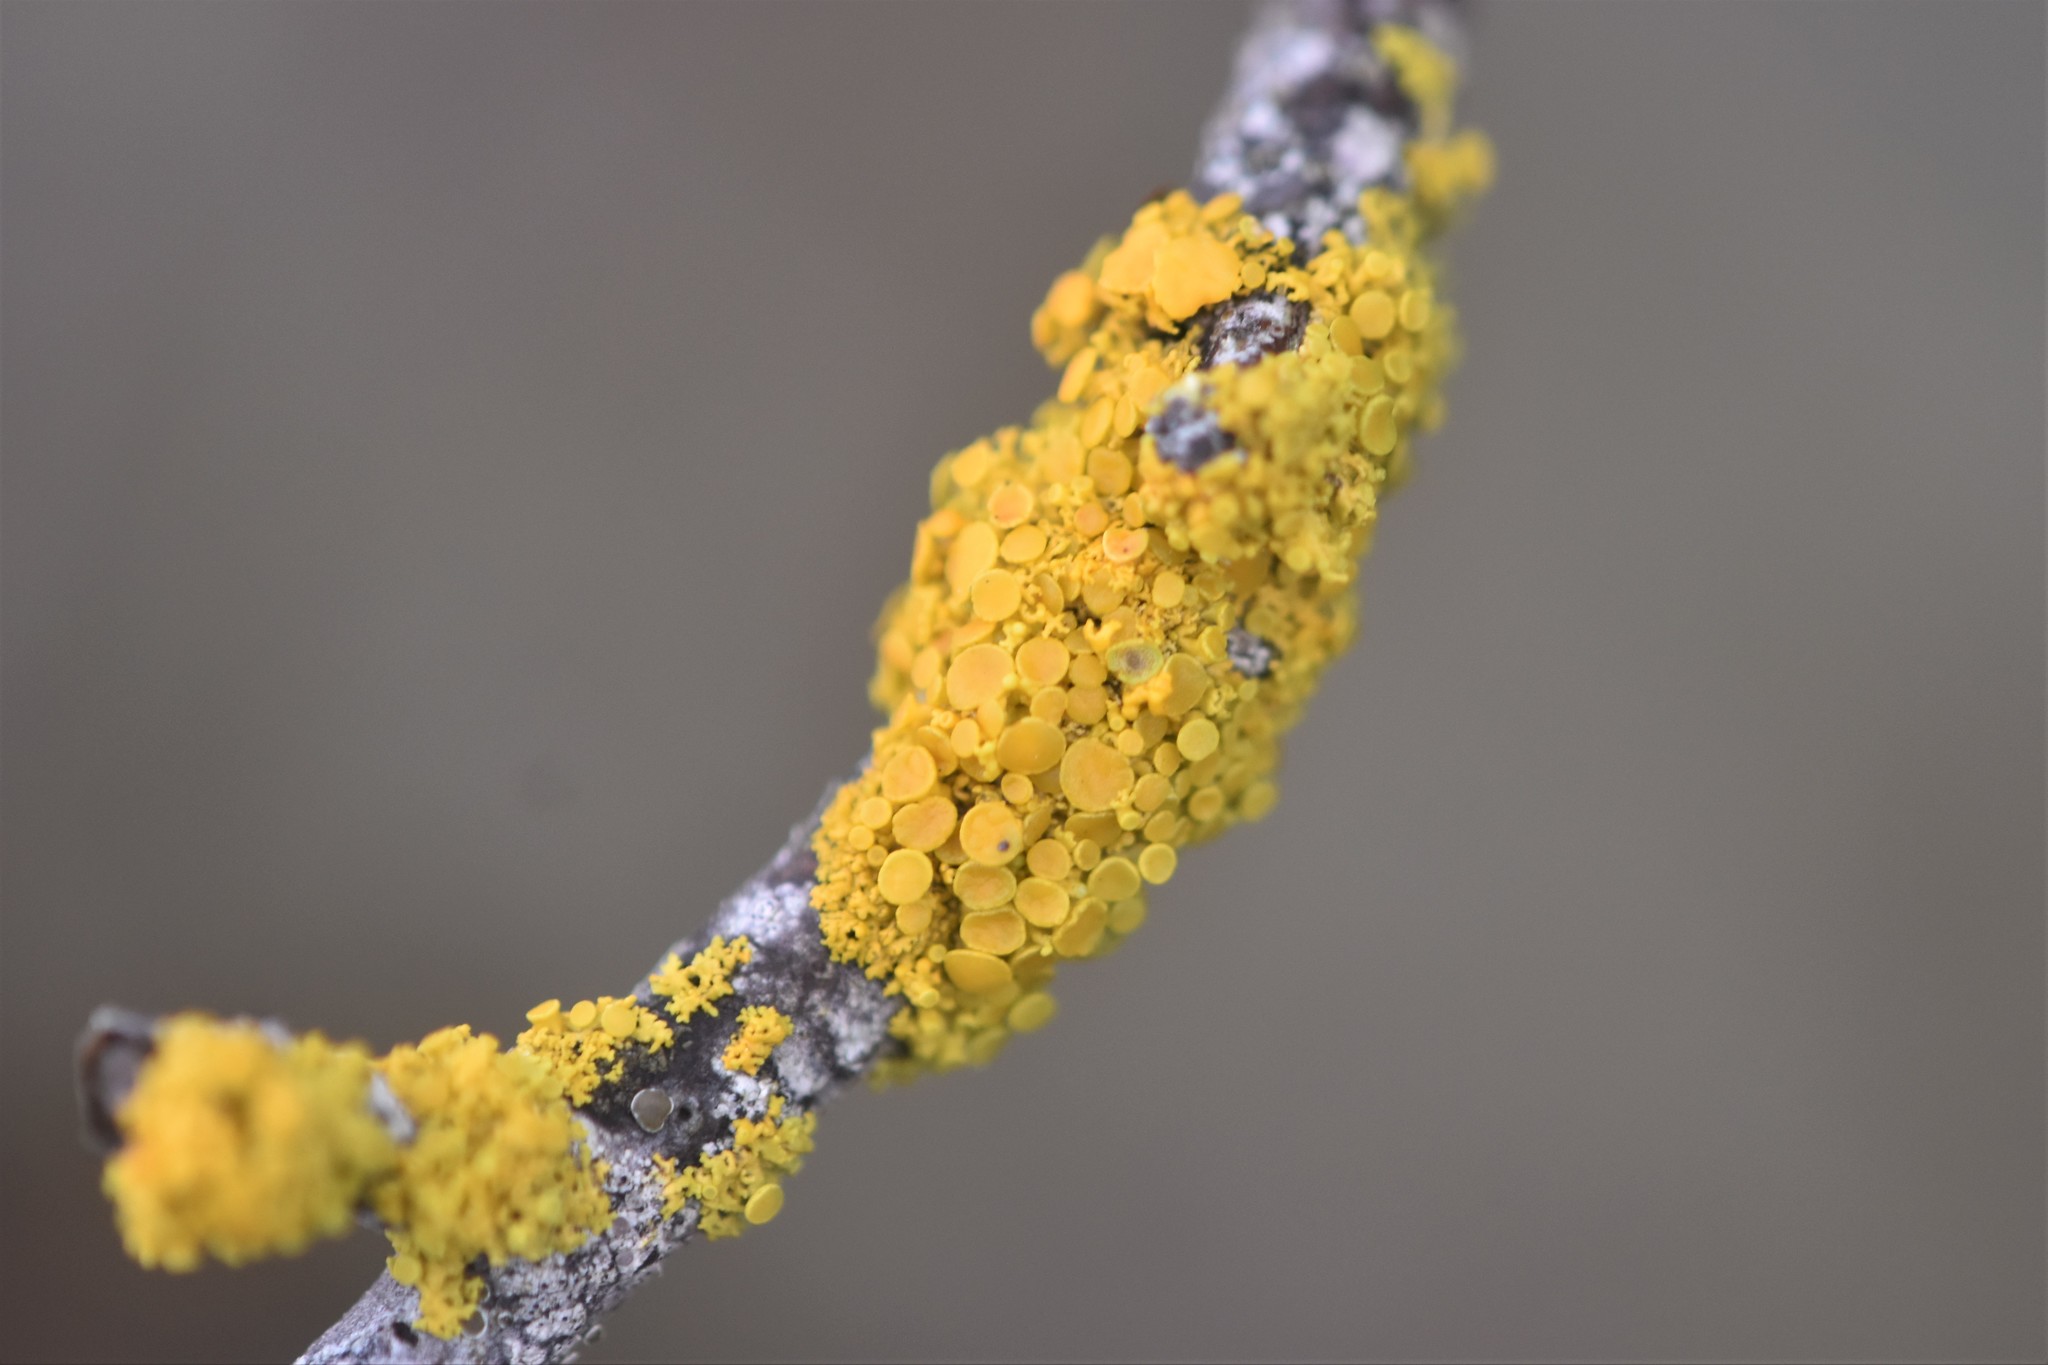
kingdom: Fungi
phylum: Ascomycota
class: Lecanoromycetes
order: Teloschistales
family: Teloschistaceae
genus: Polycauliona
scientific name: Polycauliona polycarpa
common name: Pin-cushion sunburst lichen
